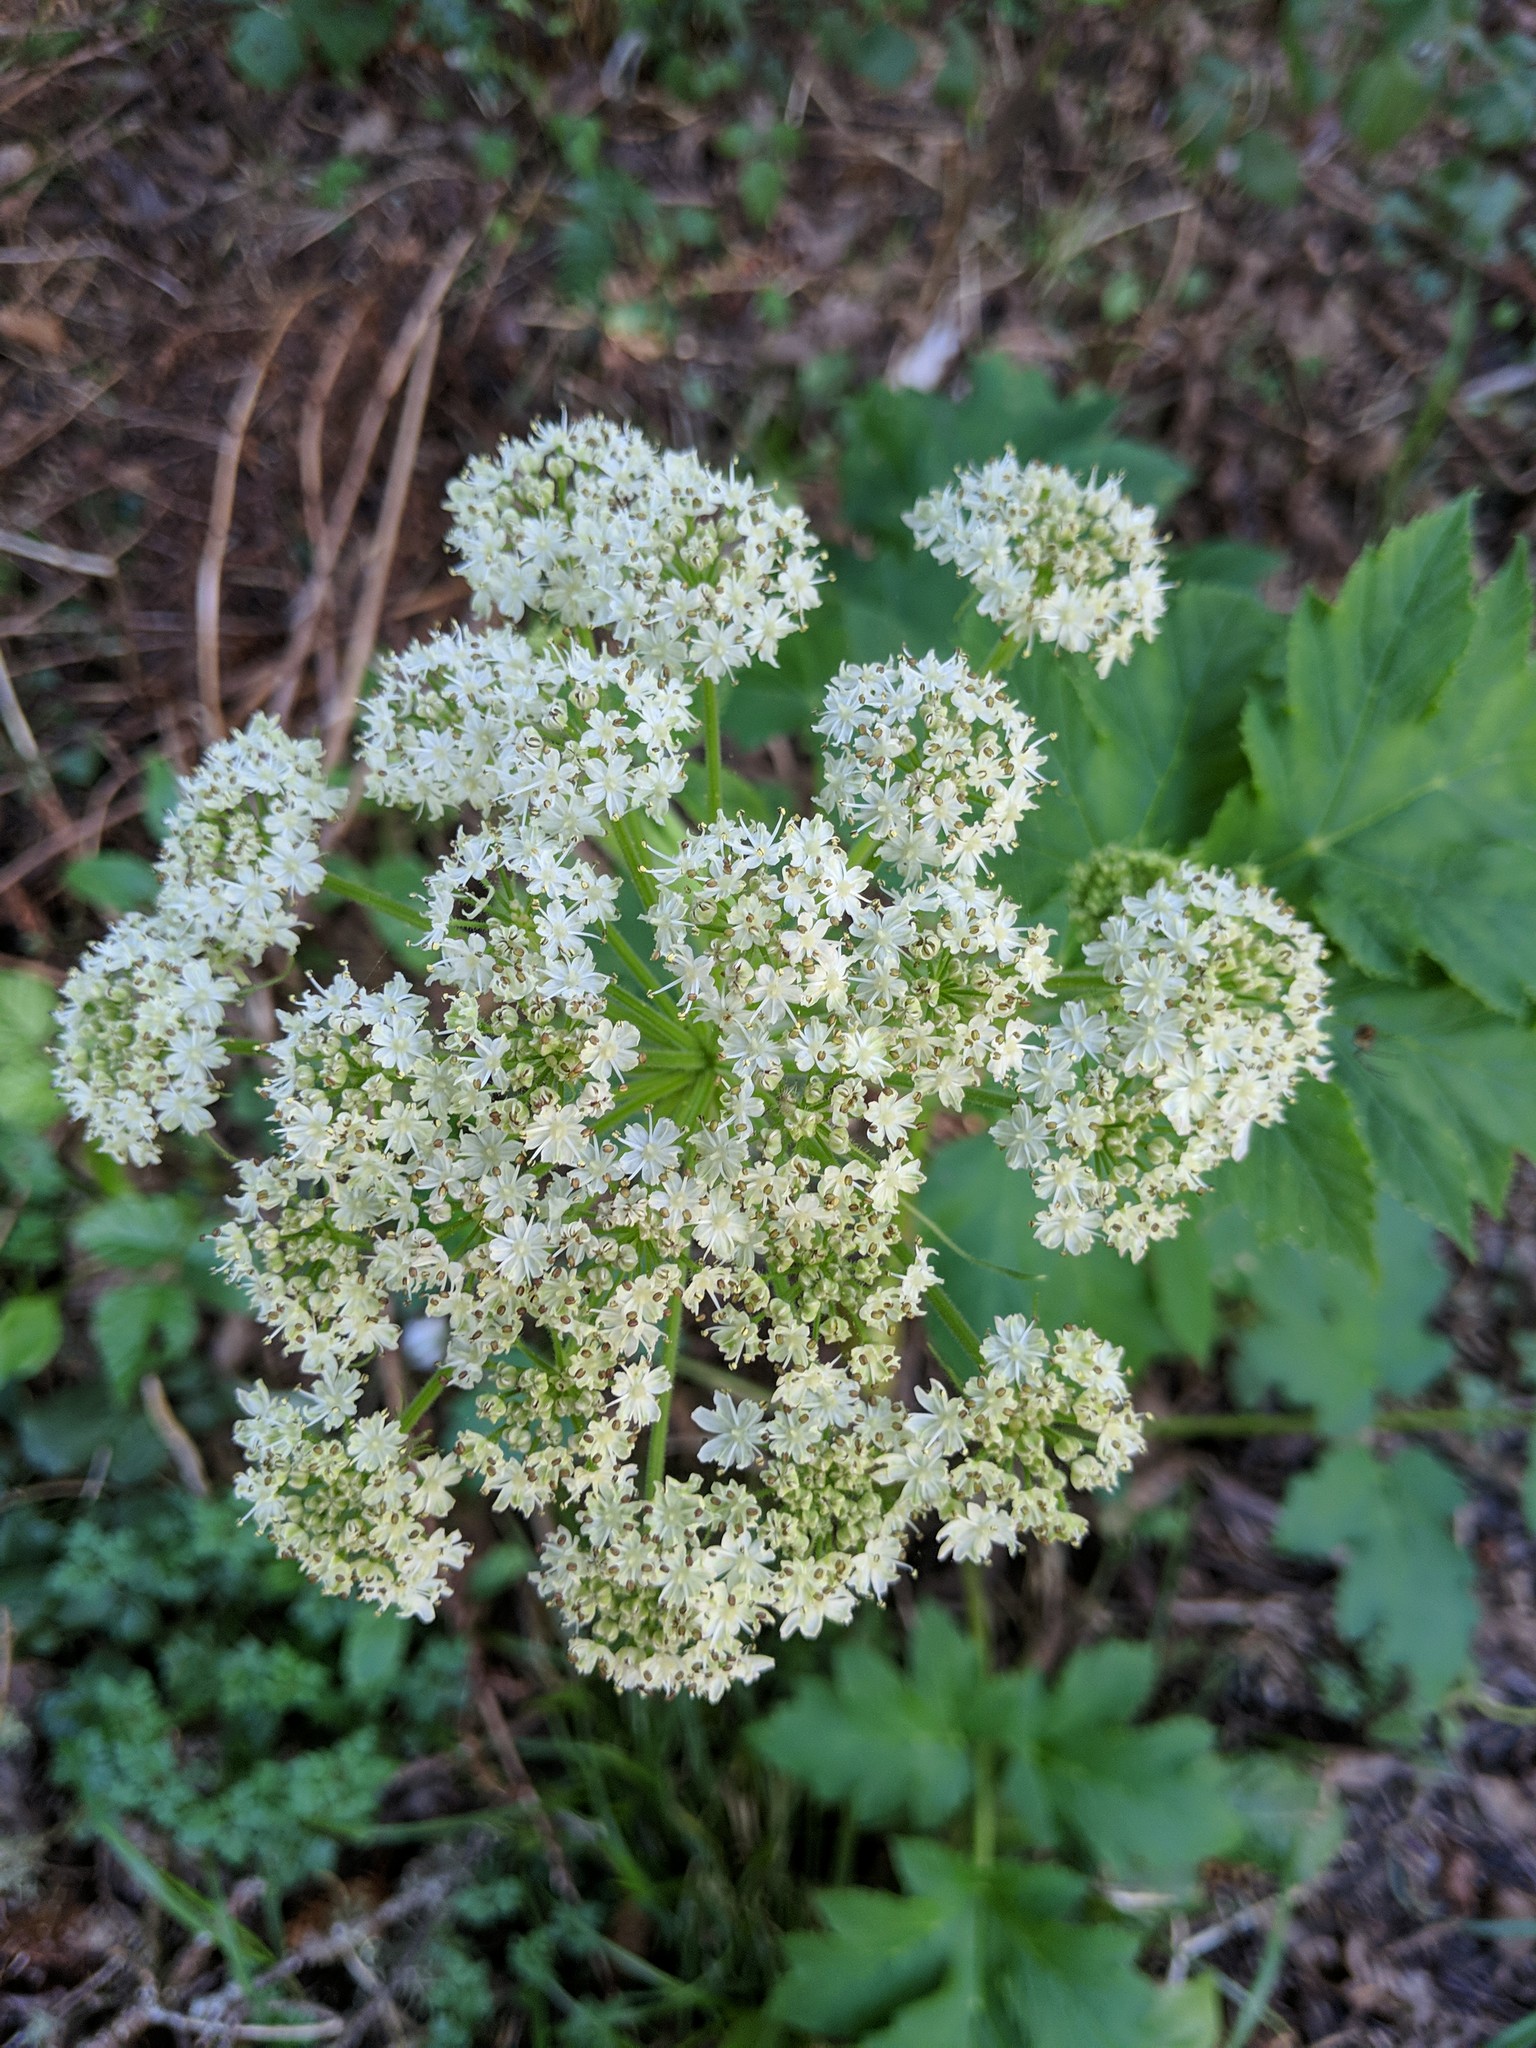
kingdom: Plantae
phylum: Tracheophyta
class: Magnoliopsida
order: Apiales
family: Apiaceae
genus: Heracleum
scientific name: Heracleum maximum
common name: American cow parsnip
